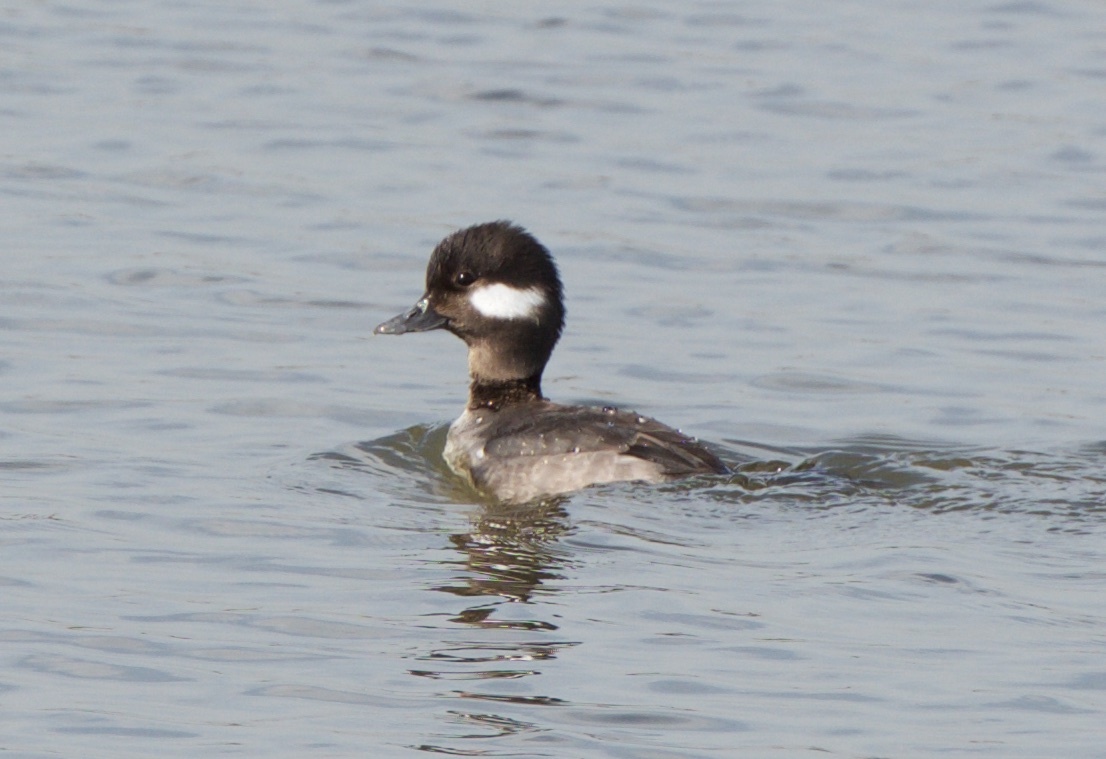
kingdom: Animalia
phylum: Chordata
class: Aves
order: Anseriformes
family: Anatidae
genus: Bucephala
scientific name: Bucephala albeola
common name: Bufflehead
